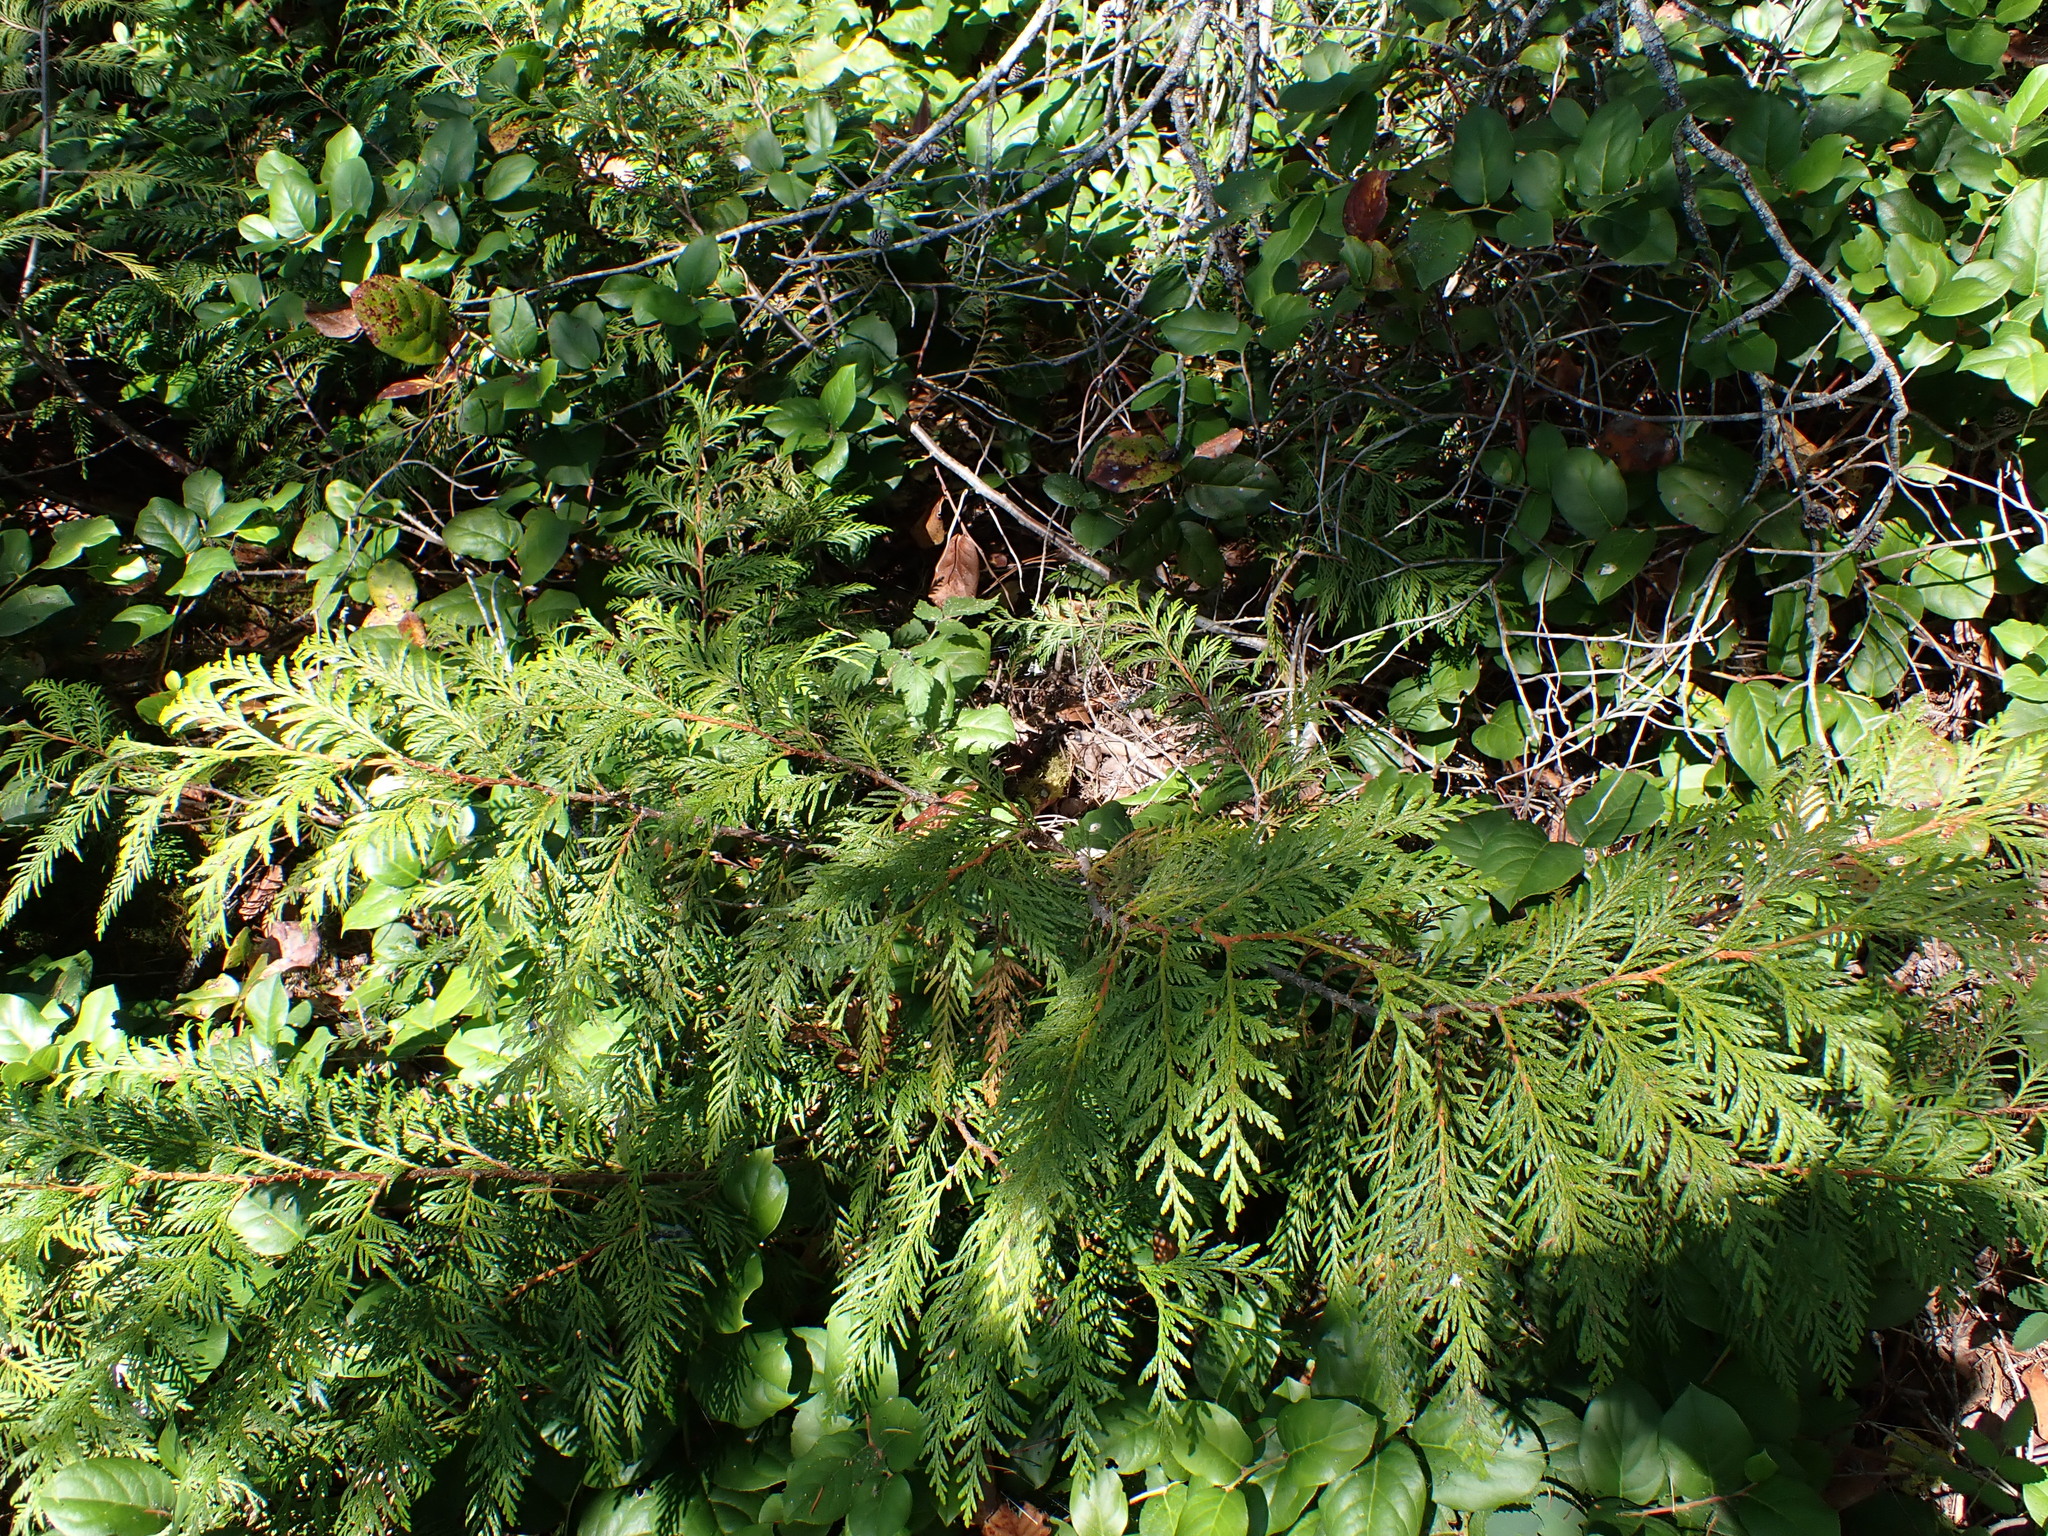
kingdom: Plantae
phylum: Tracheophyta
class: Pinopsida
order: Pinales
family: Cupressaceae
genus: Thuja
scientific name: Thuja plicata
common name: Western red-cedar
